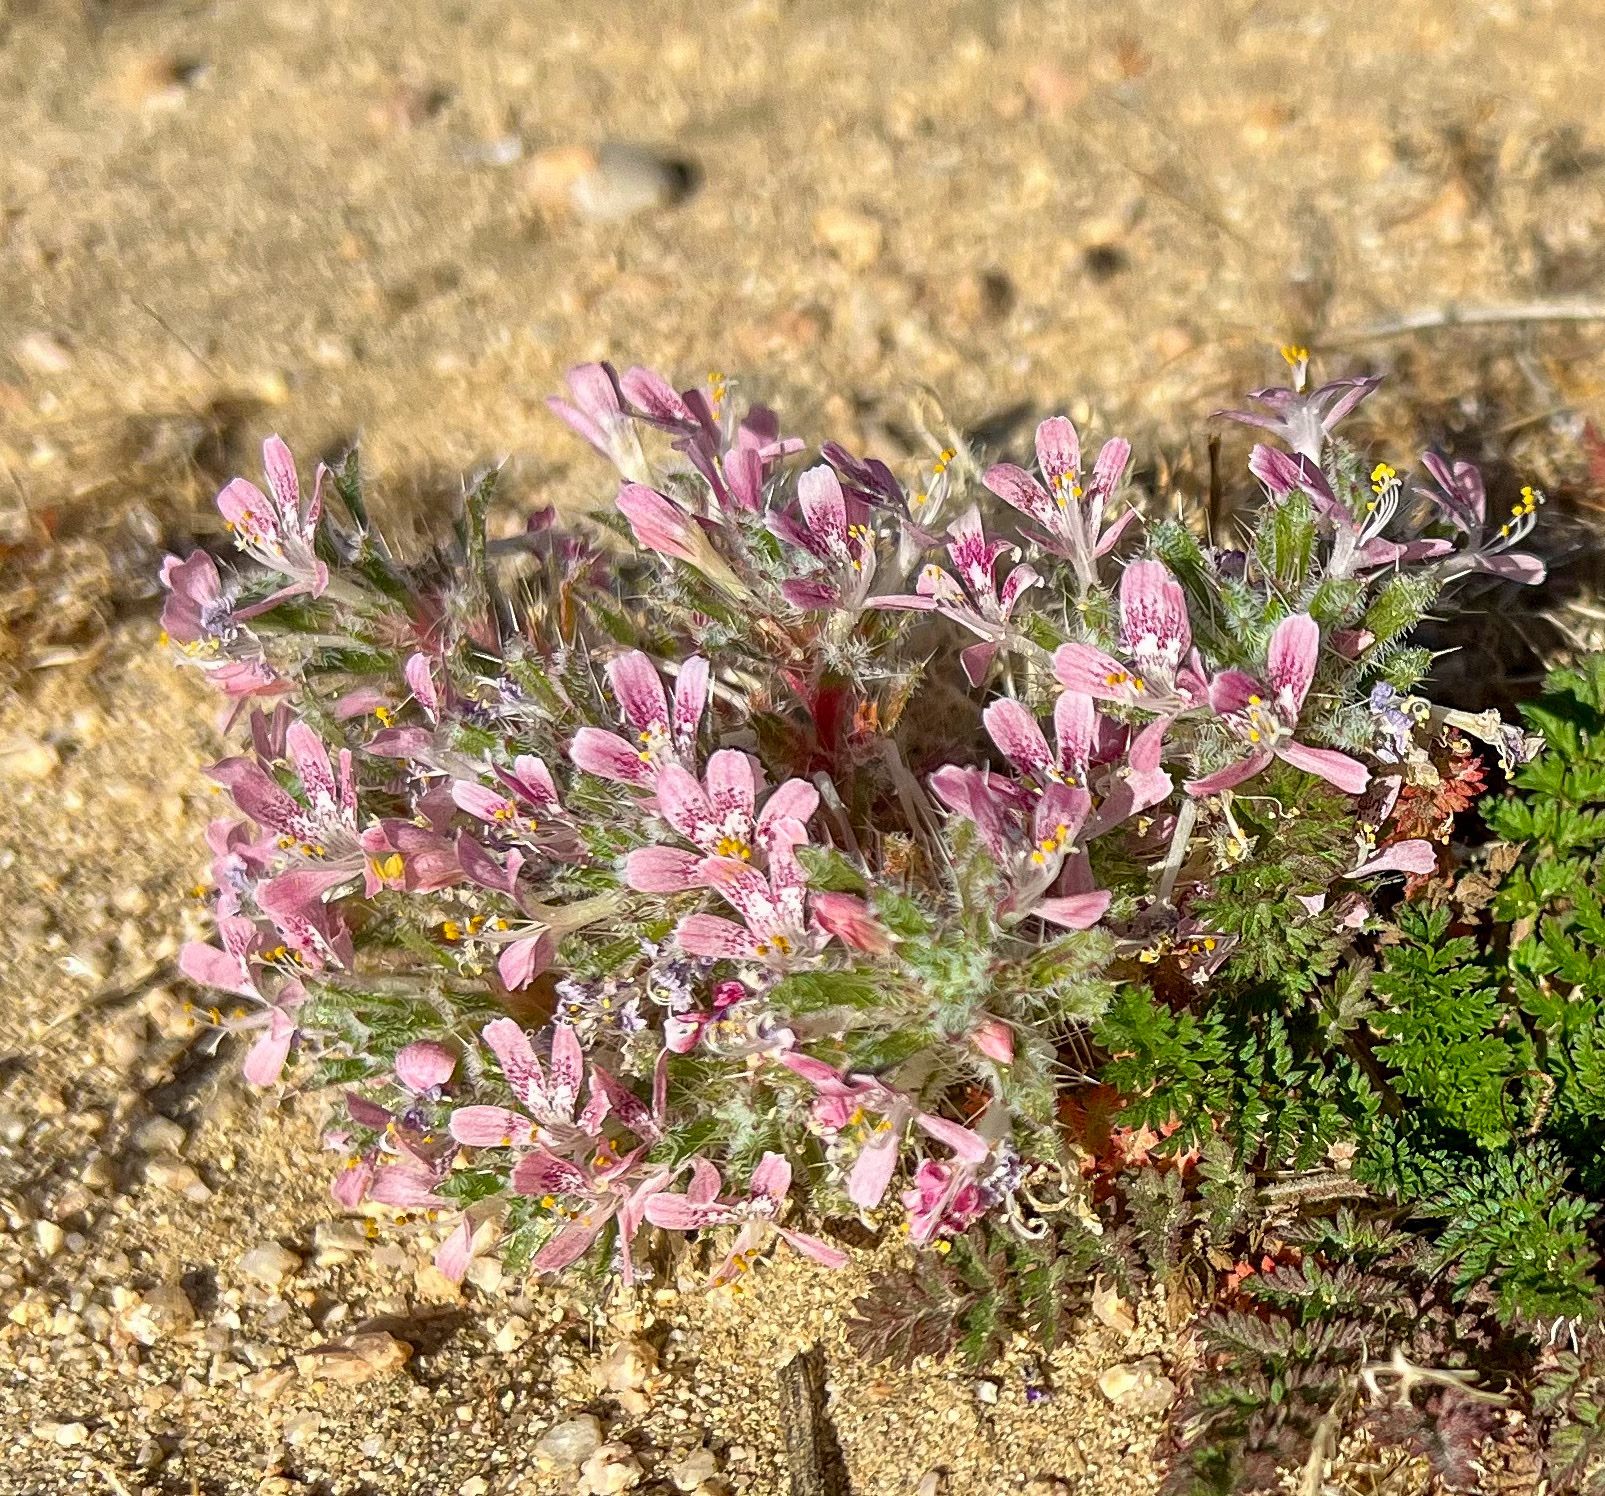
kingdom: Plantae
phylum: Tracheophyta
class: Magnoliopsida
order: Ericales
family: Polemoniaceae
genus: Loeseliastrum
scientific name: Loeseliastrum matthewsii
